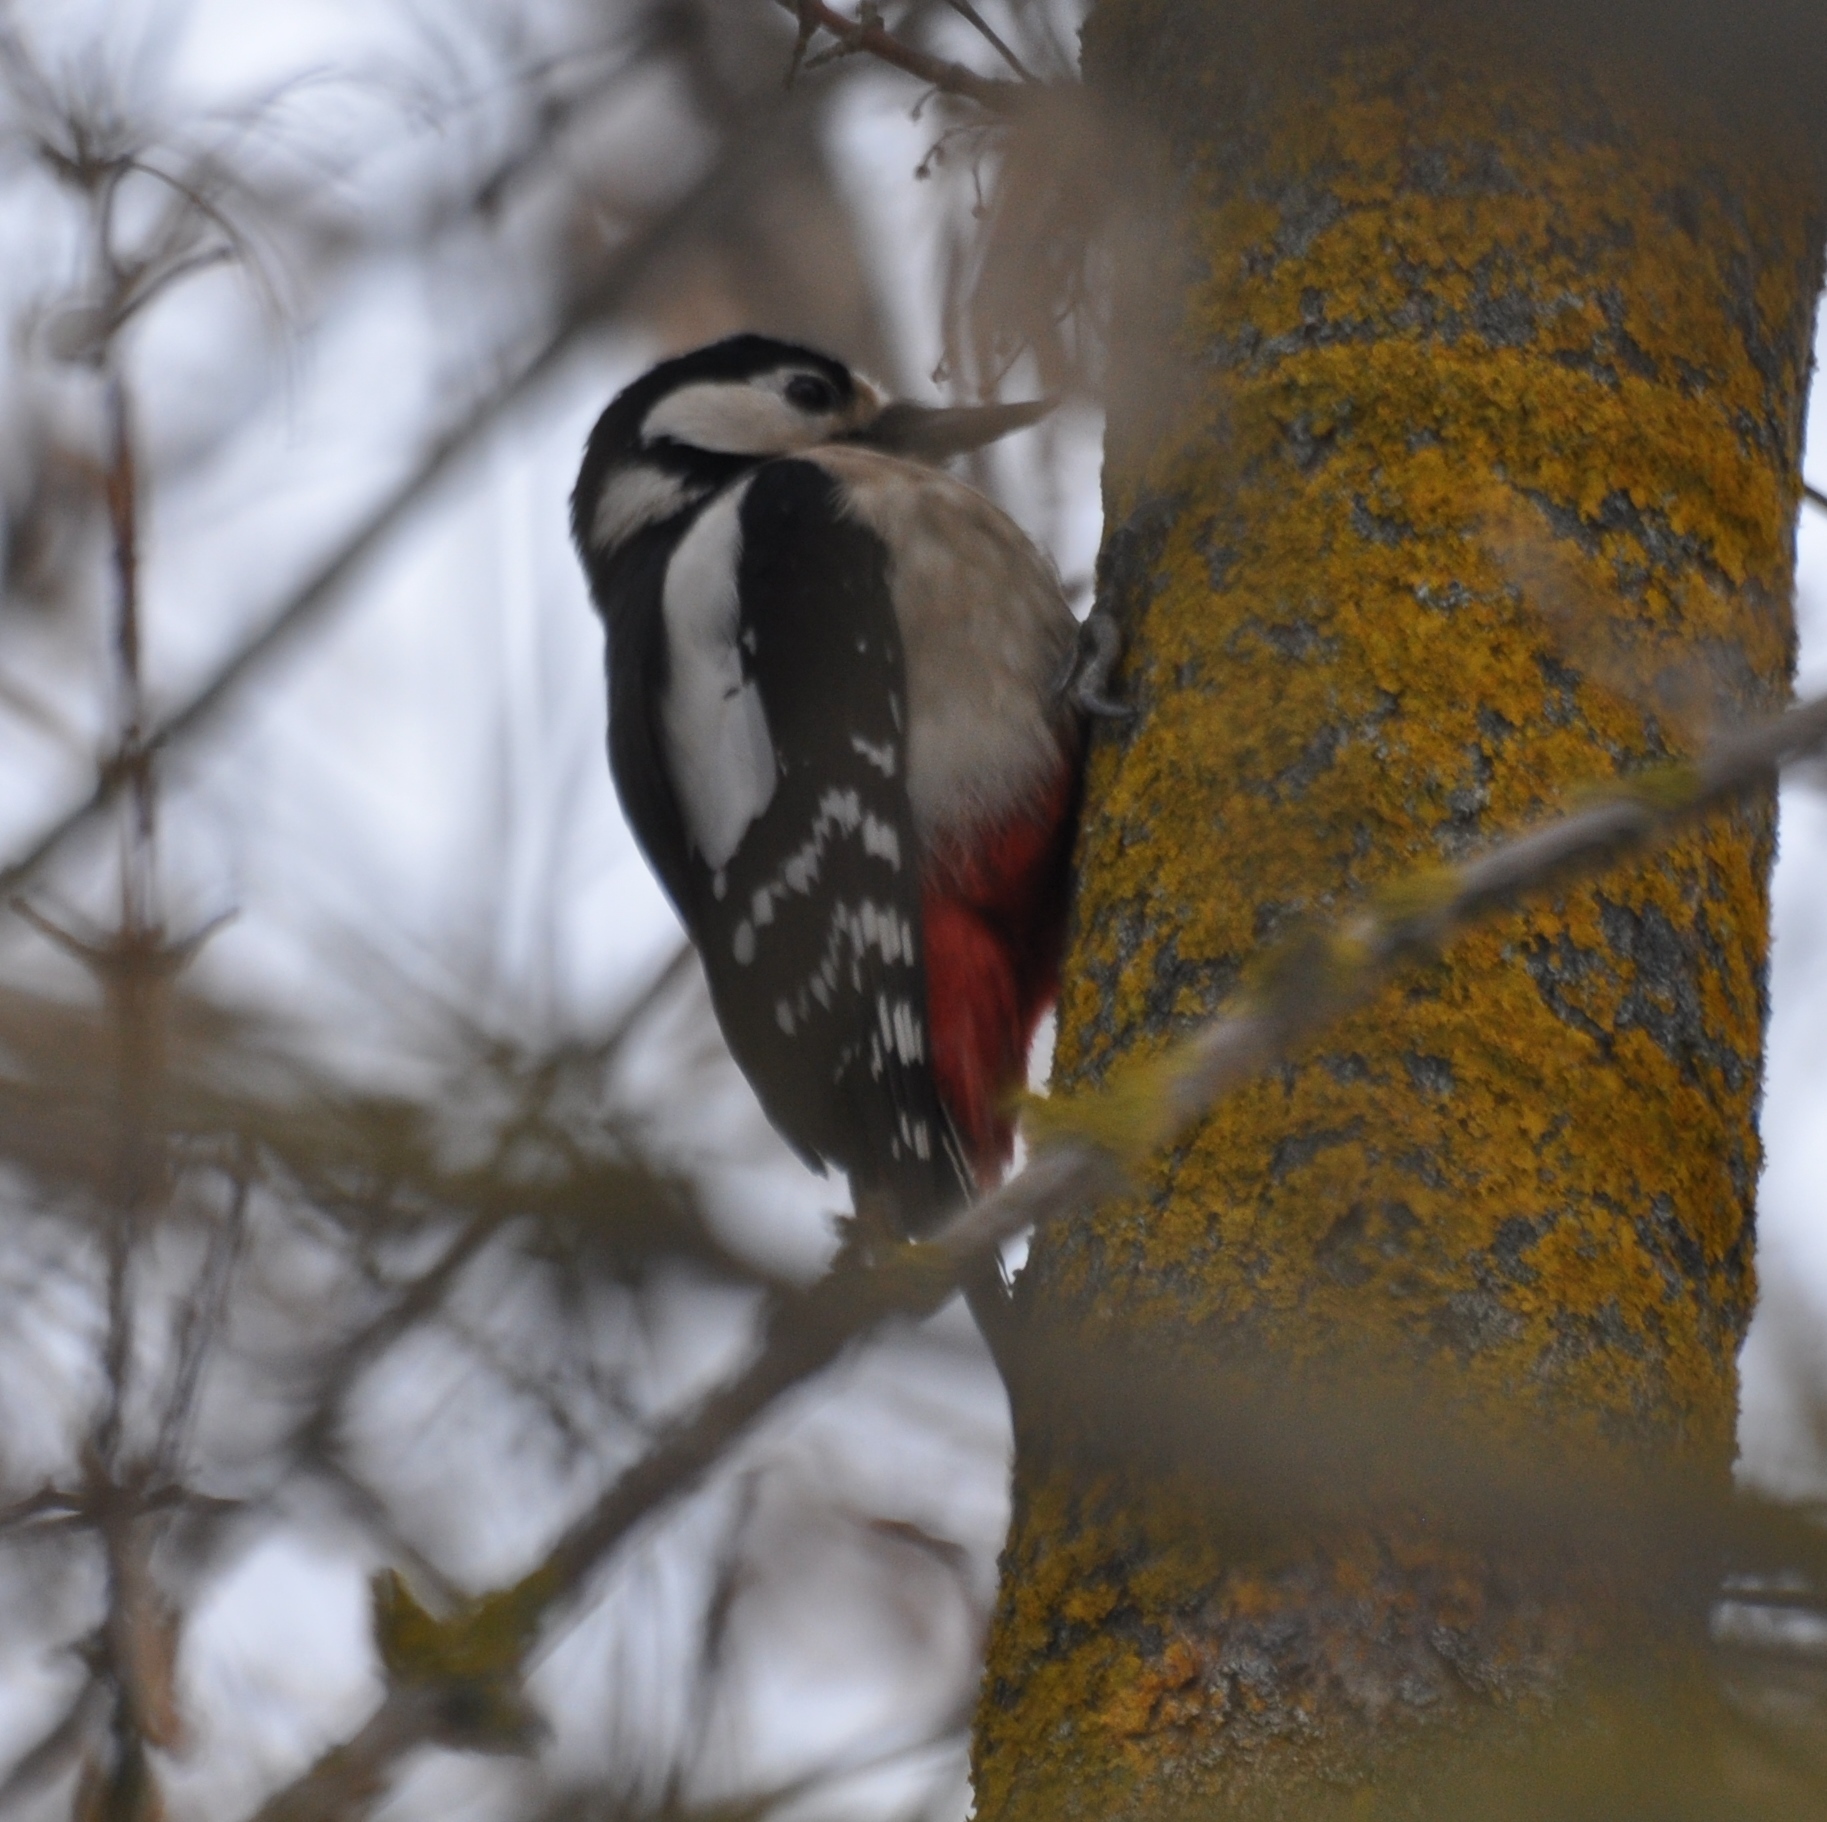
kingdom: Animalia
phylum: Chordata
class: Aves
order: Piciformes
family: Picidae
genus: Dendrocopos
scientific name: Dendrocopos major
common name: Great spotted woodpecker
